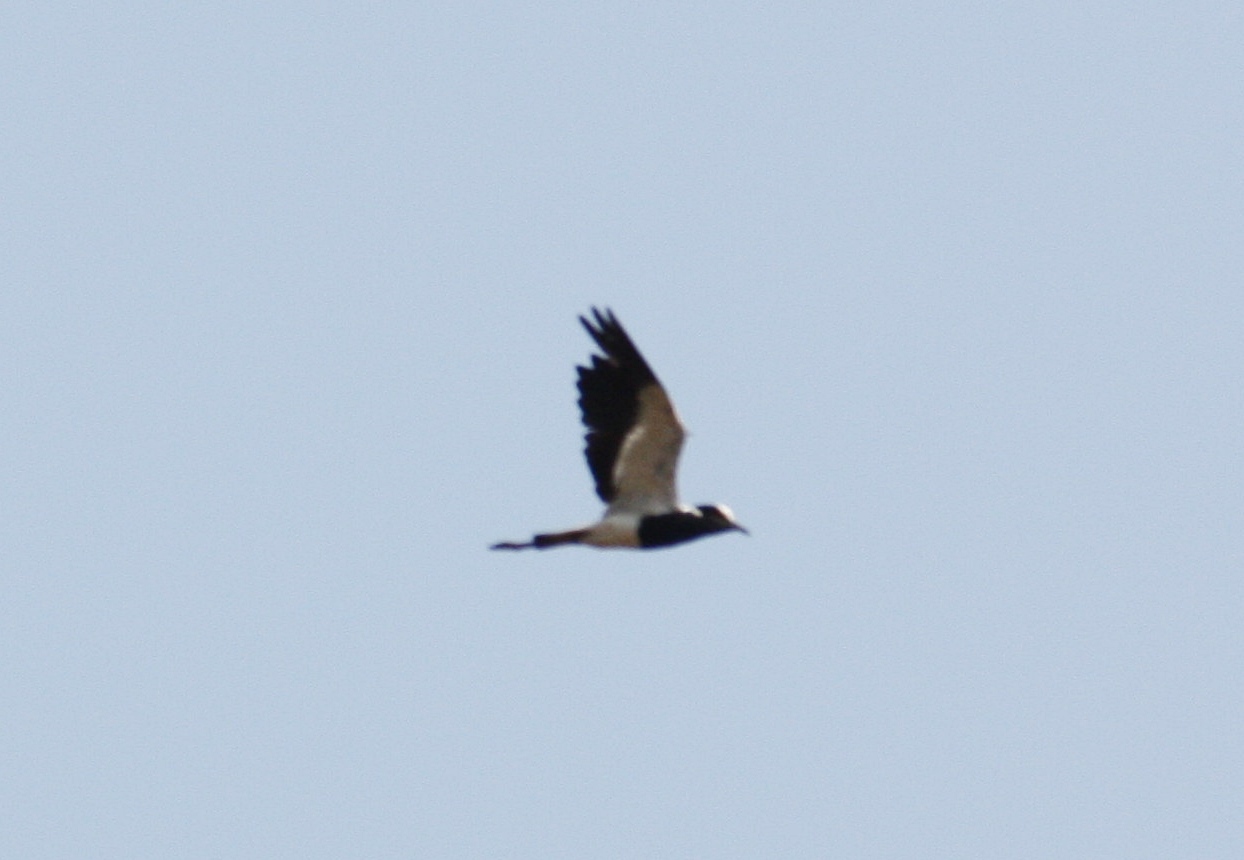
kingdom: Animalia
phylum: Chordata
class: Aves
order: Charadriiformes
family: Charadriidae
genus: Vanellus
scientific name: Vanellus armatus
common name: Blacksmith lapwing
